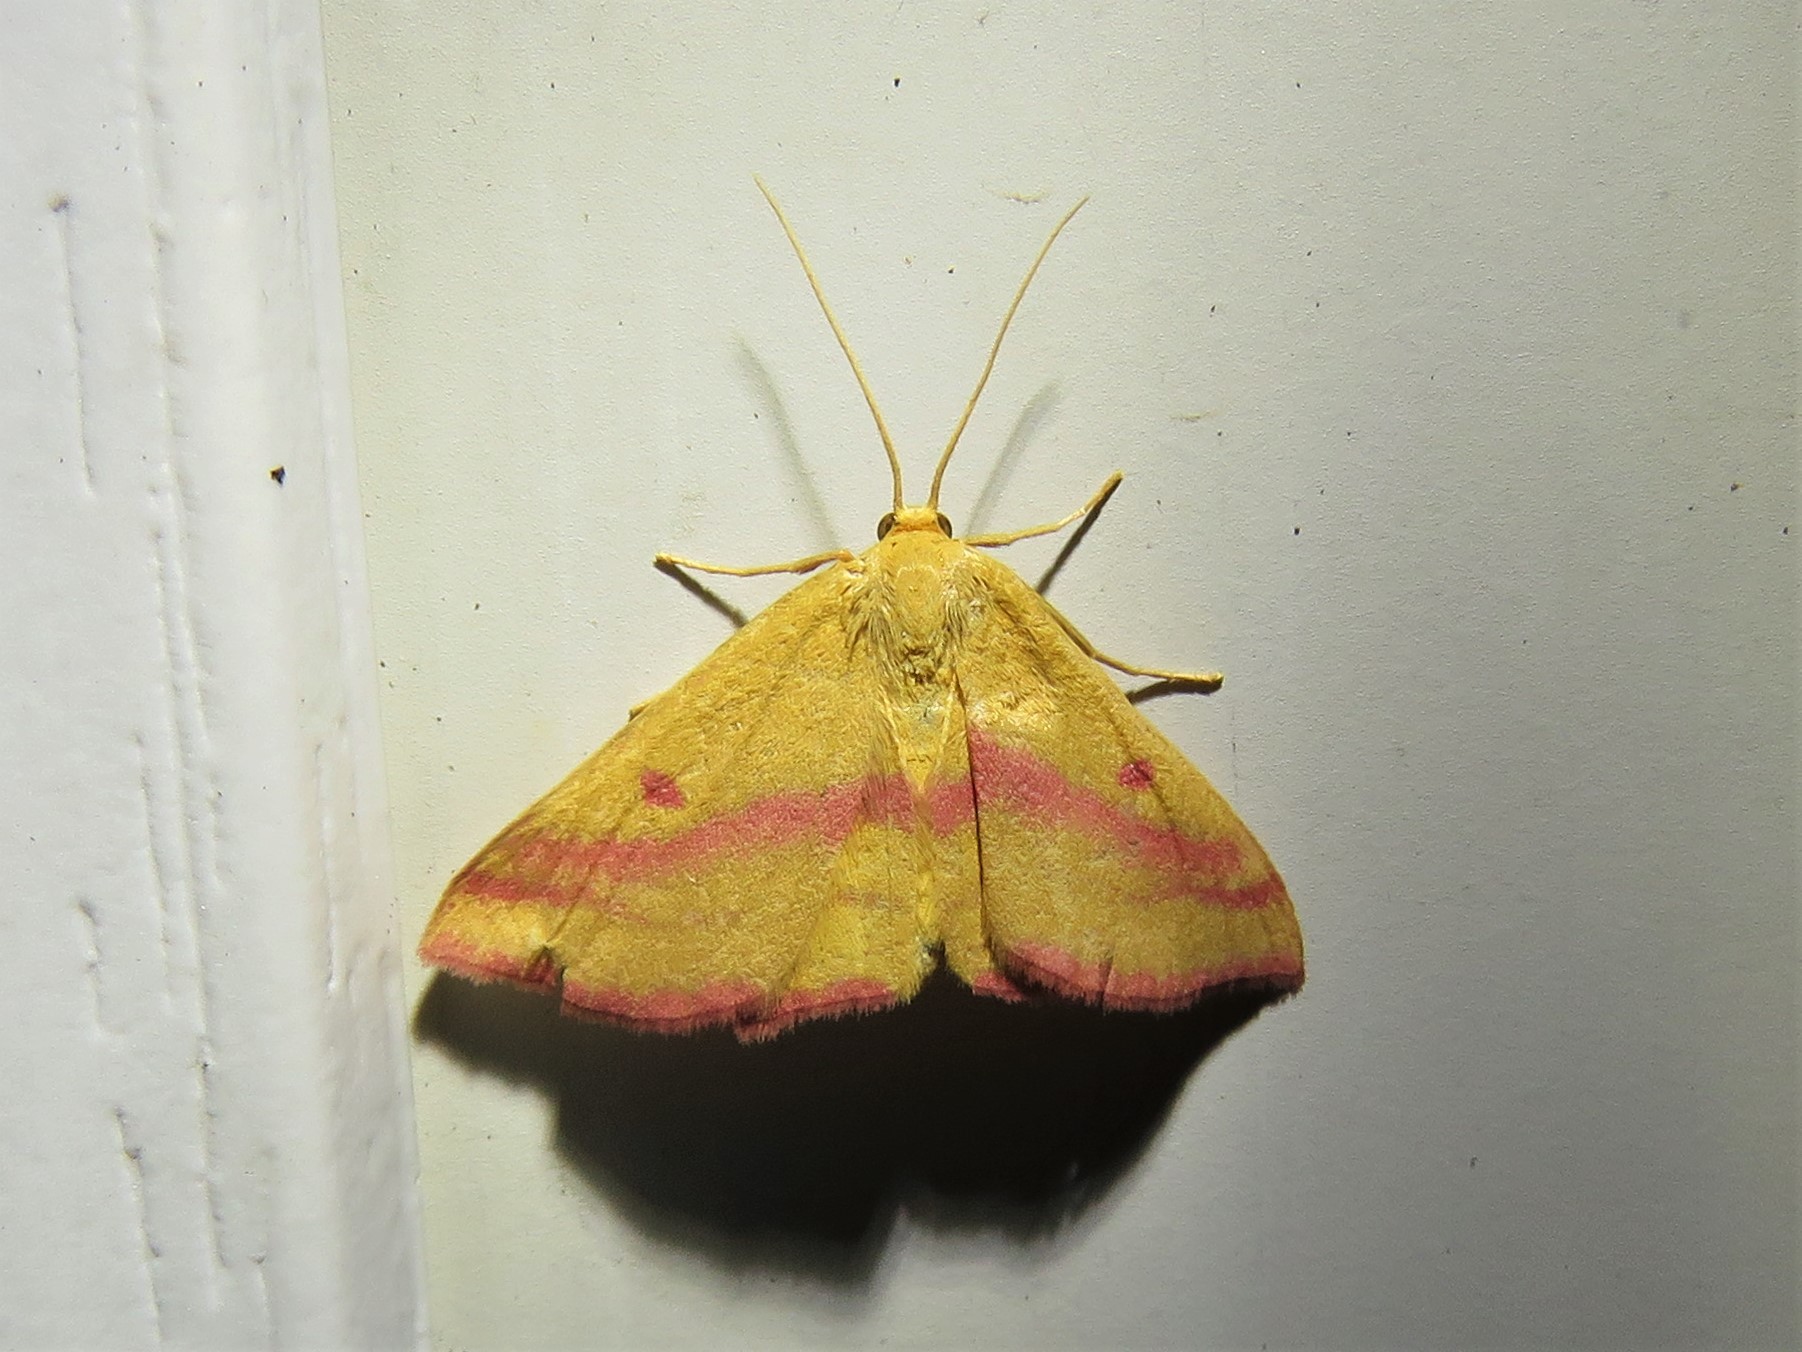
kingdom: Animalia
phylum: Arthropoda
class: Insecta
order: Lepidoptera
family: Geometridae
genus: Haematopis
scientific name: Haematopis grataria
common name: Chickweed geometer
